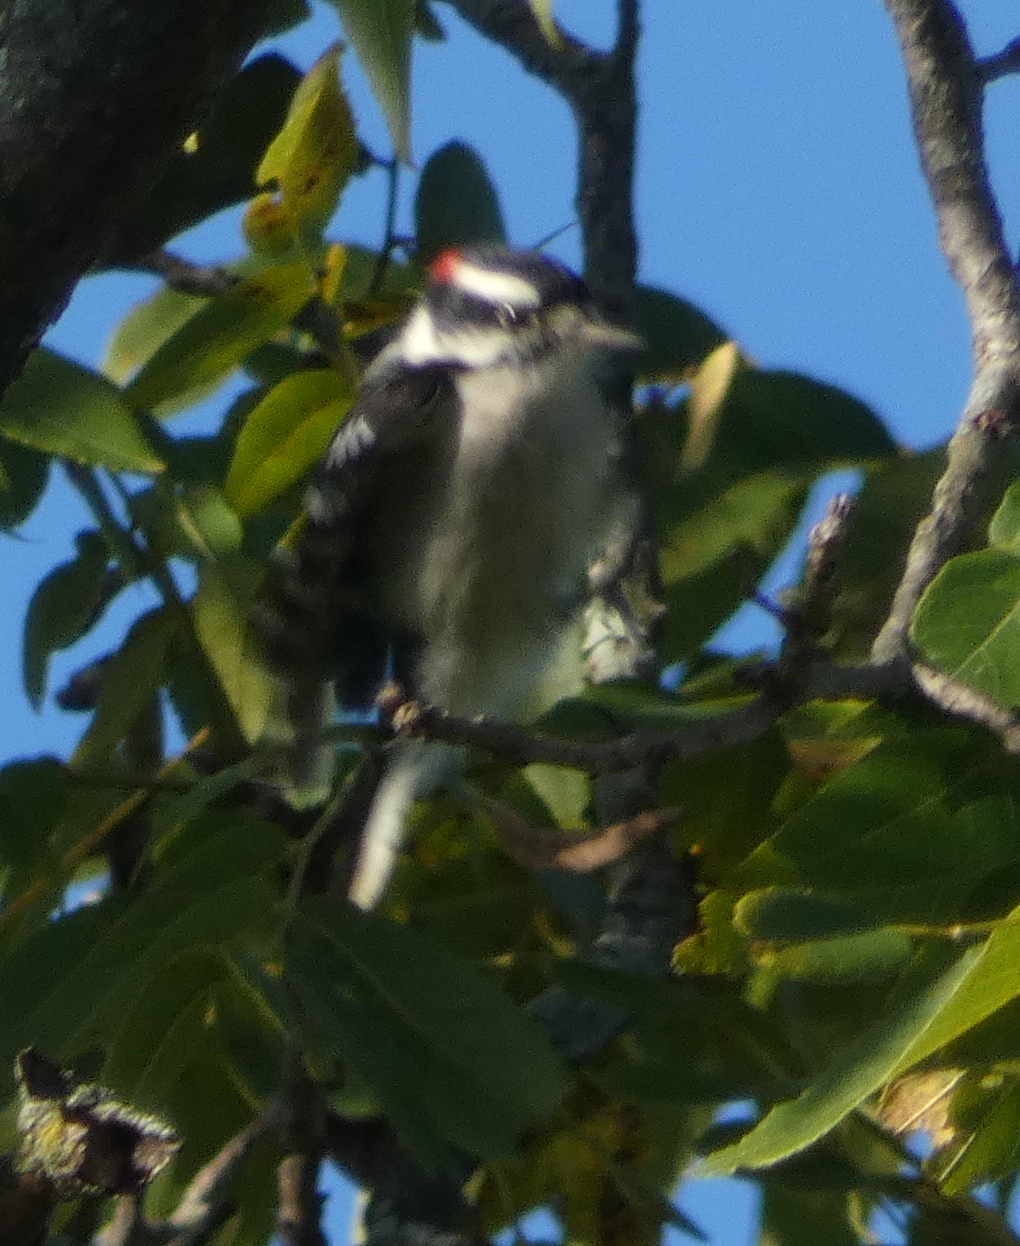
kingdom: Animalia
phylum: Chordata
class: Aves
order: Piciformes
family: Picidae
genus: Dryobates
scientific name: Dryobates pubescens
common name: Downy woodpecker
